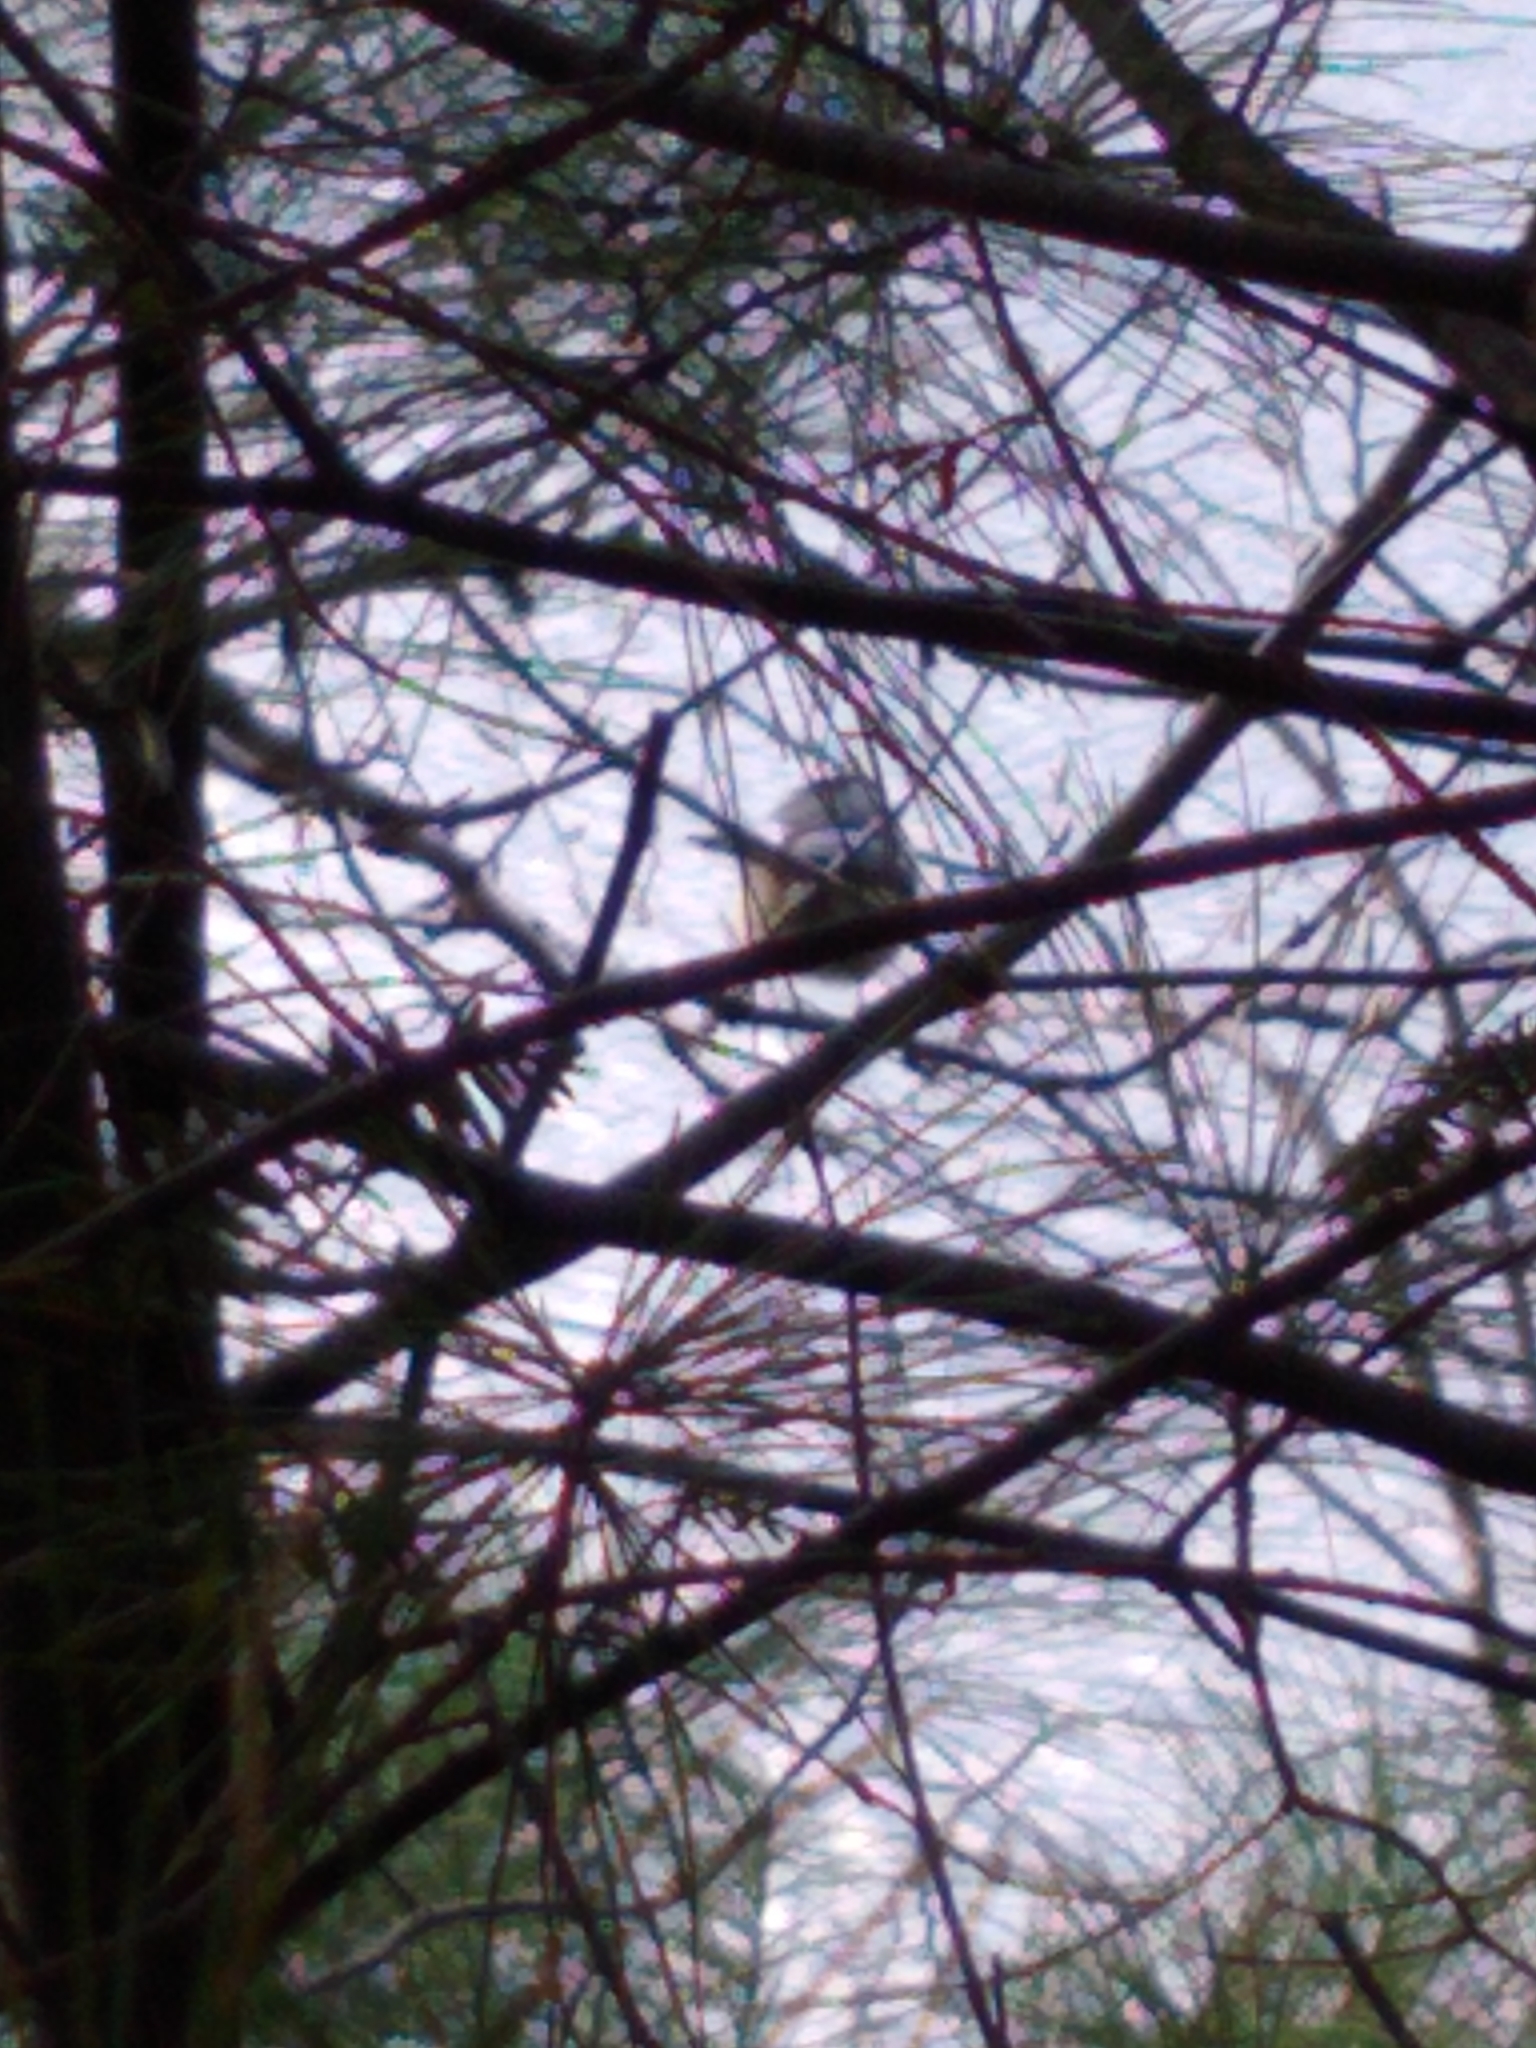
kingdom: Animalia
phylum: Chordata
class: Aves
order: Passeriformes
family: Paridae
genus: Poecile
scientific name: Poecile atricapillus
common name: Black-capped chickadee
